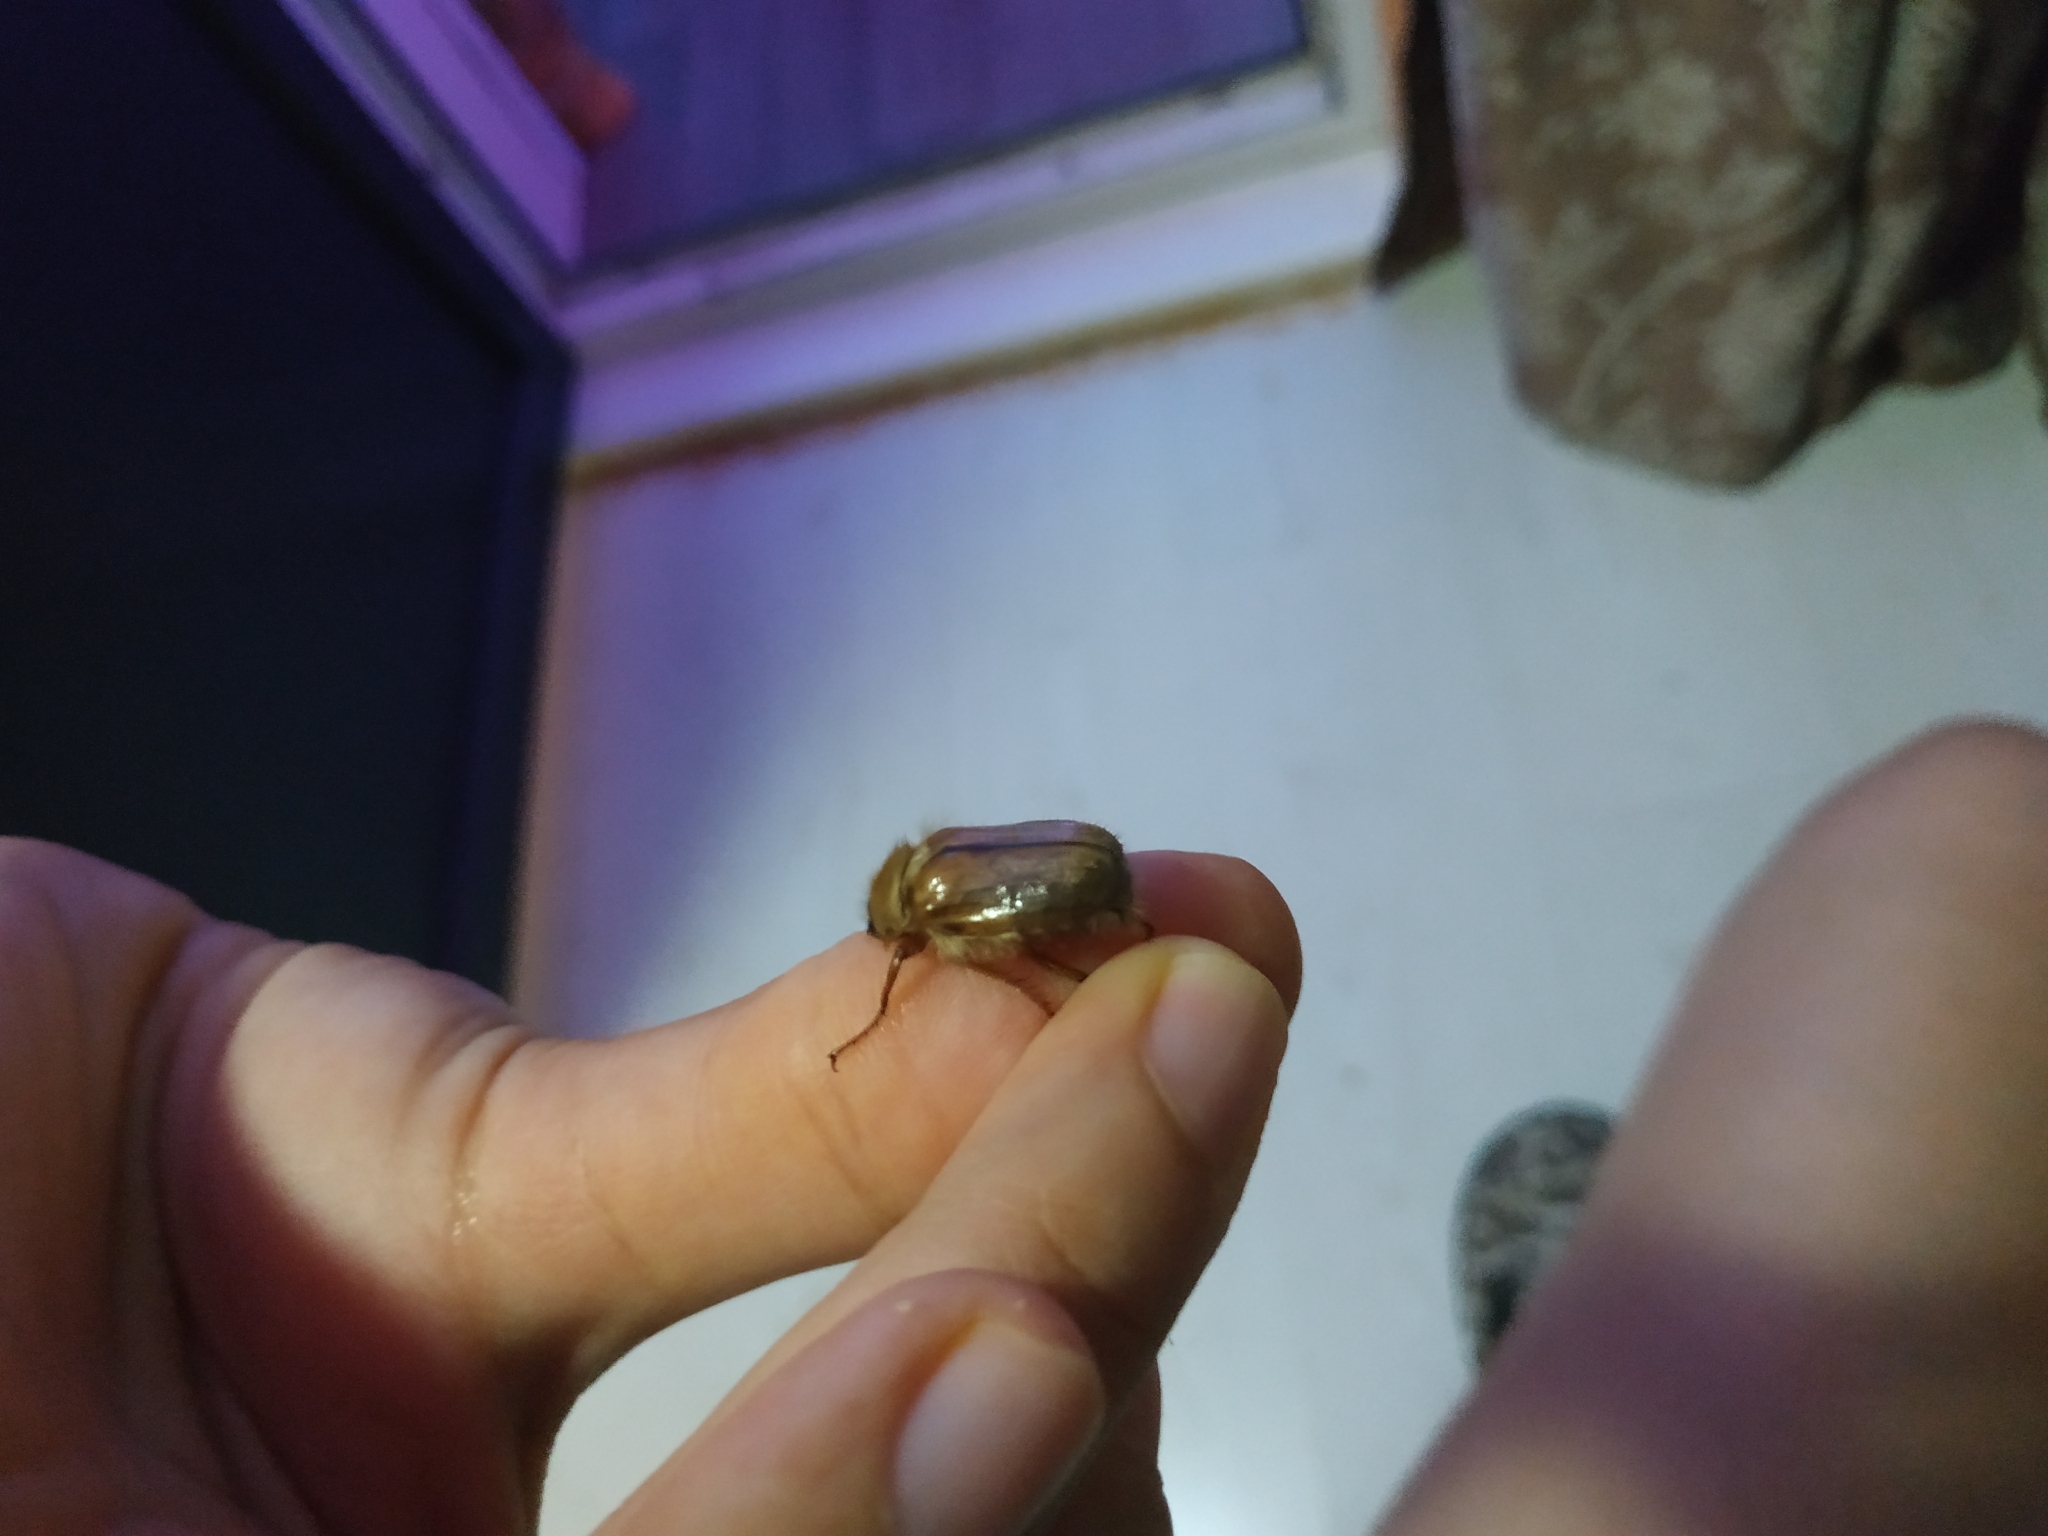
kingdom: Animalia
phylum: Arthropoda
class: Insecta
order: Coleoptera
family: Scarabaeidae
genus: Amphimallon
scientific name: Amphimallon solstitiale
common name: Summer chafer
